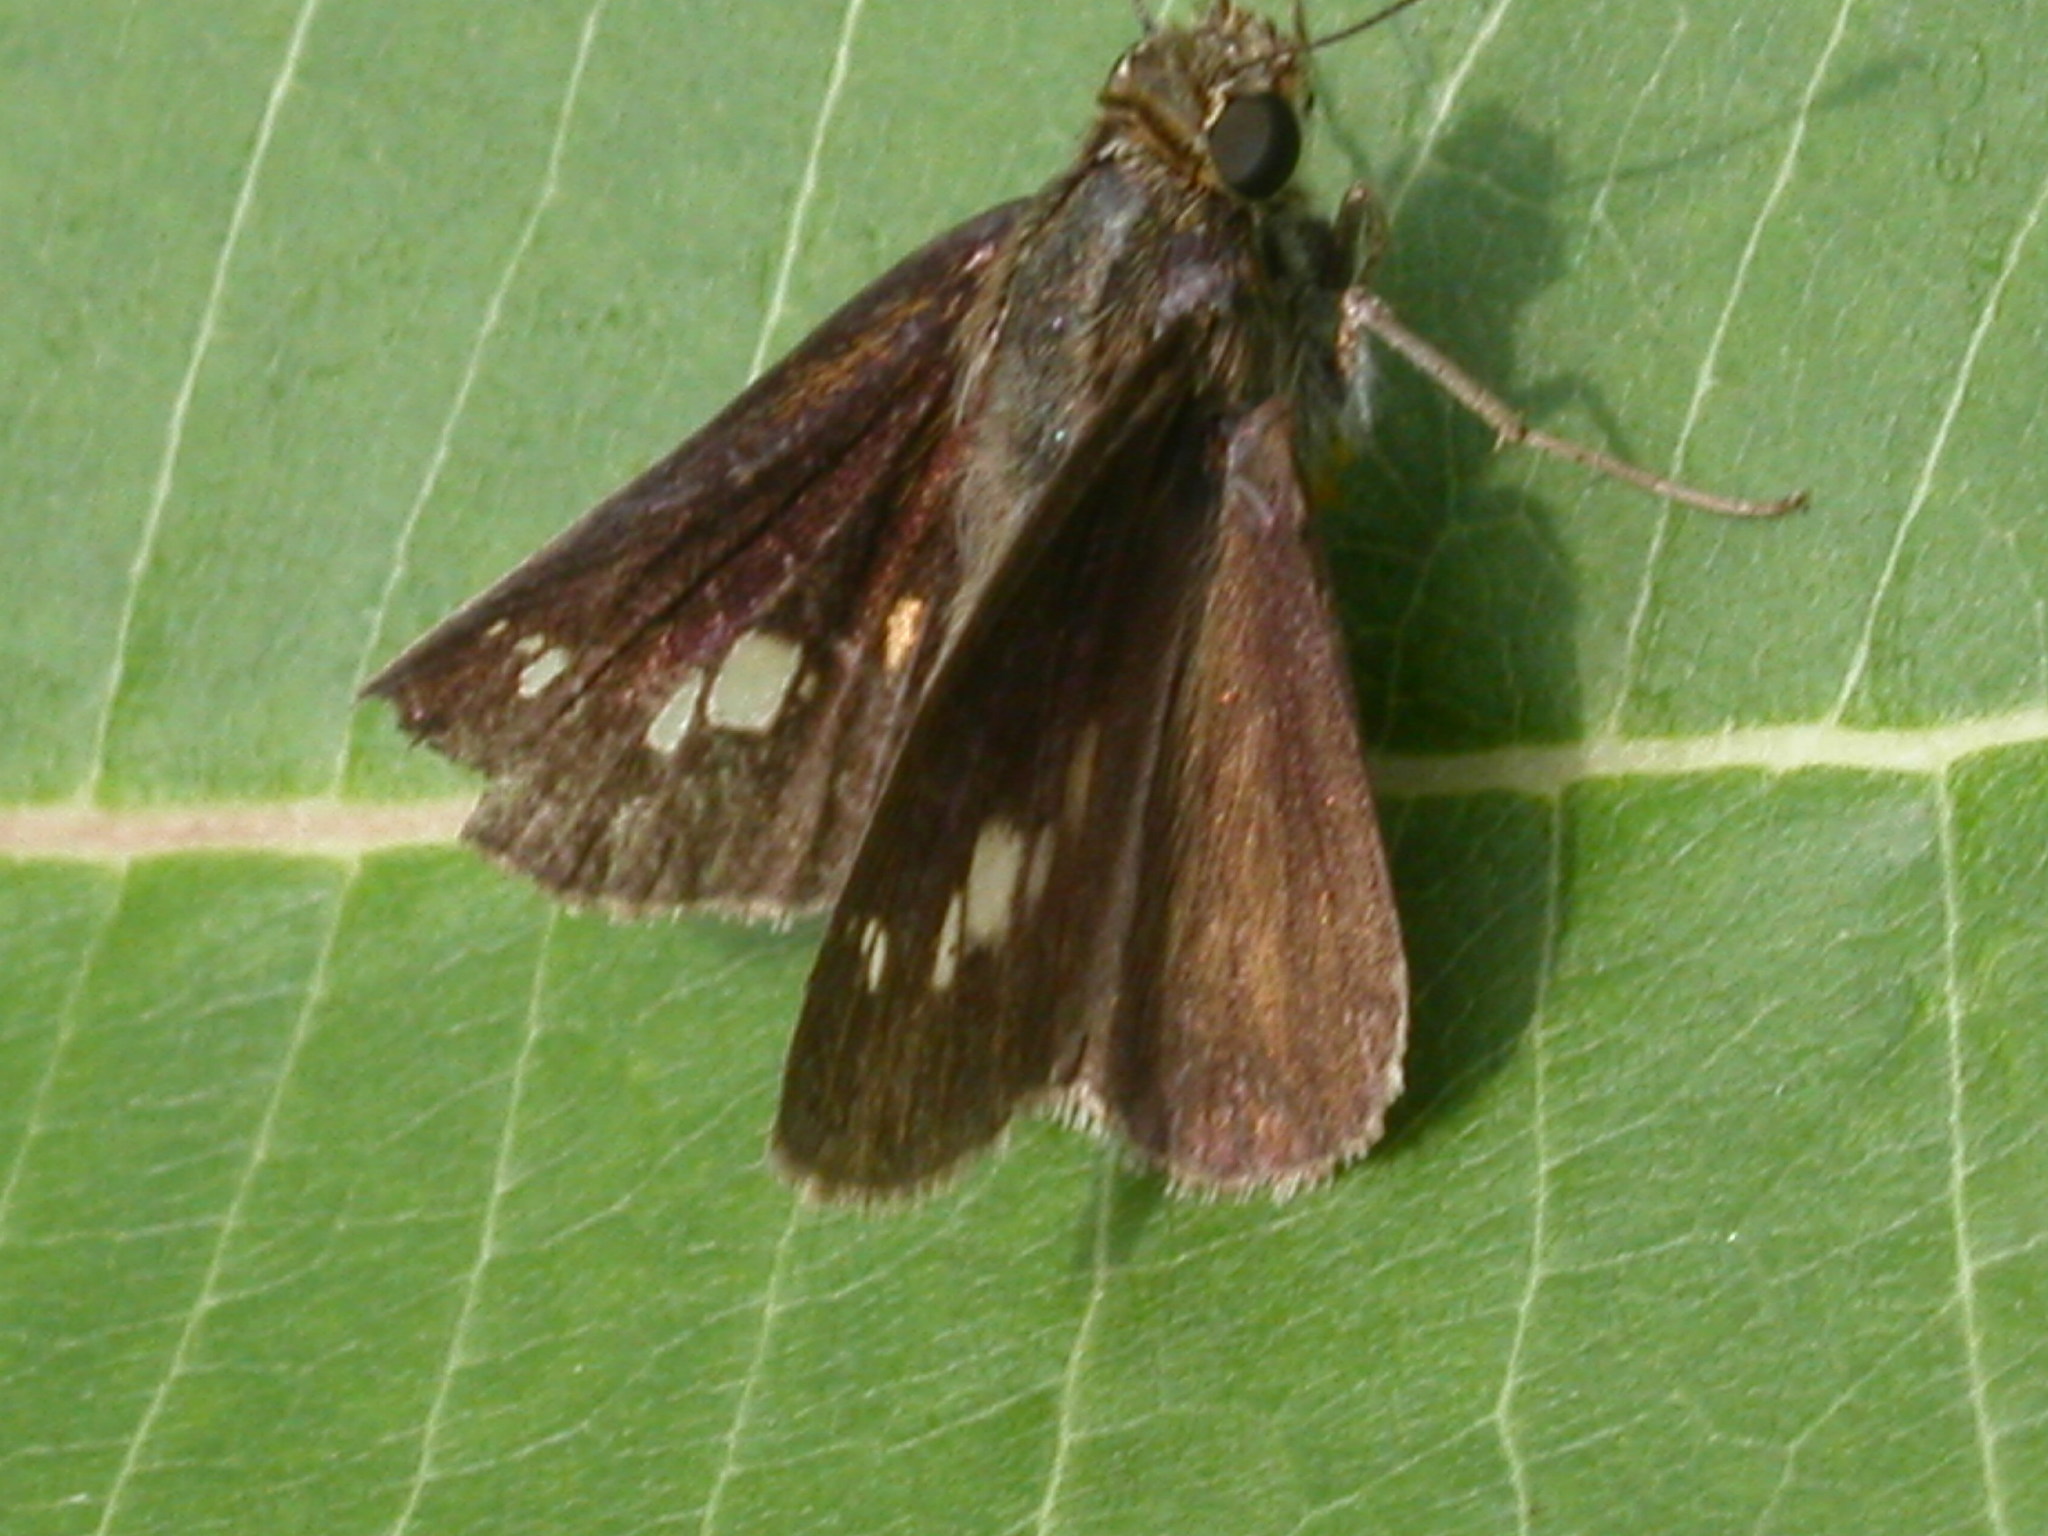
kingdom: Animalia
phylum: Arthropoda
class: Insecta
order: Lepidoptera
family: Hesperiidae
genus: Vernia
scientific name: Vernia verna
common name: Little glassywing
